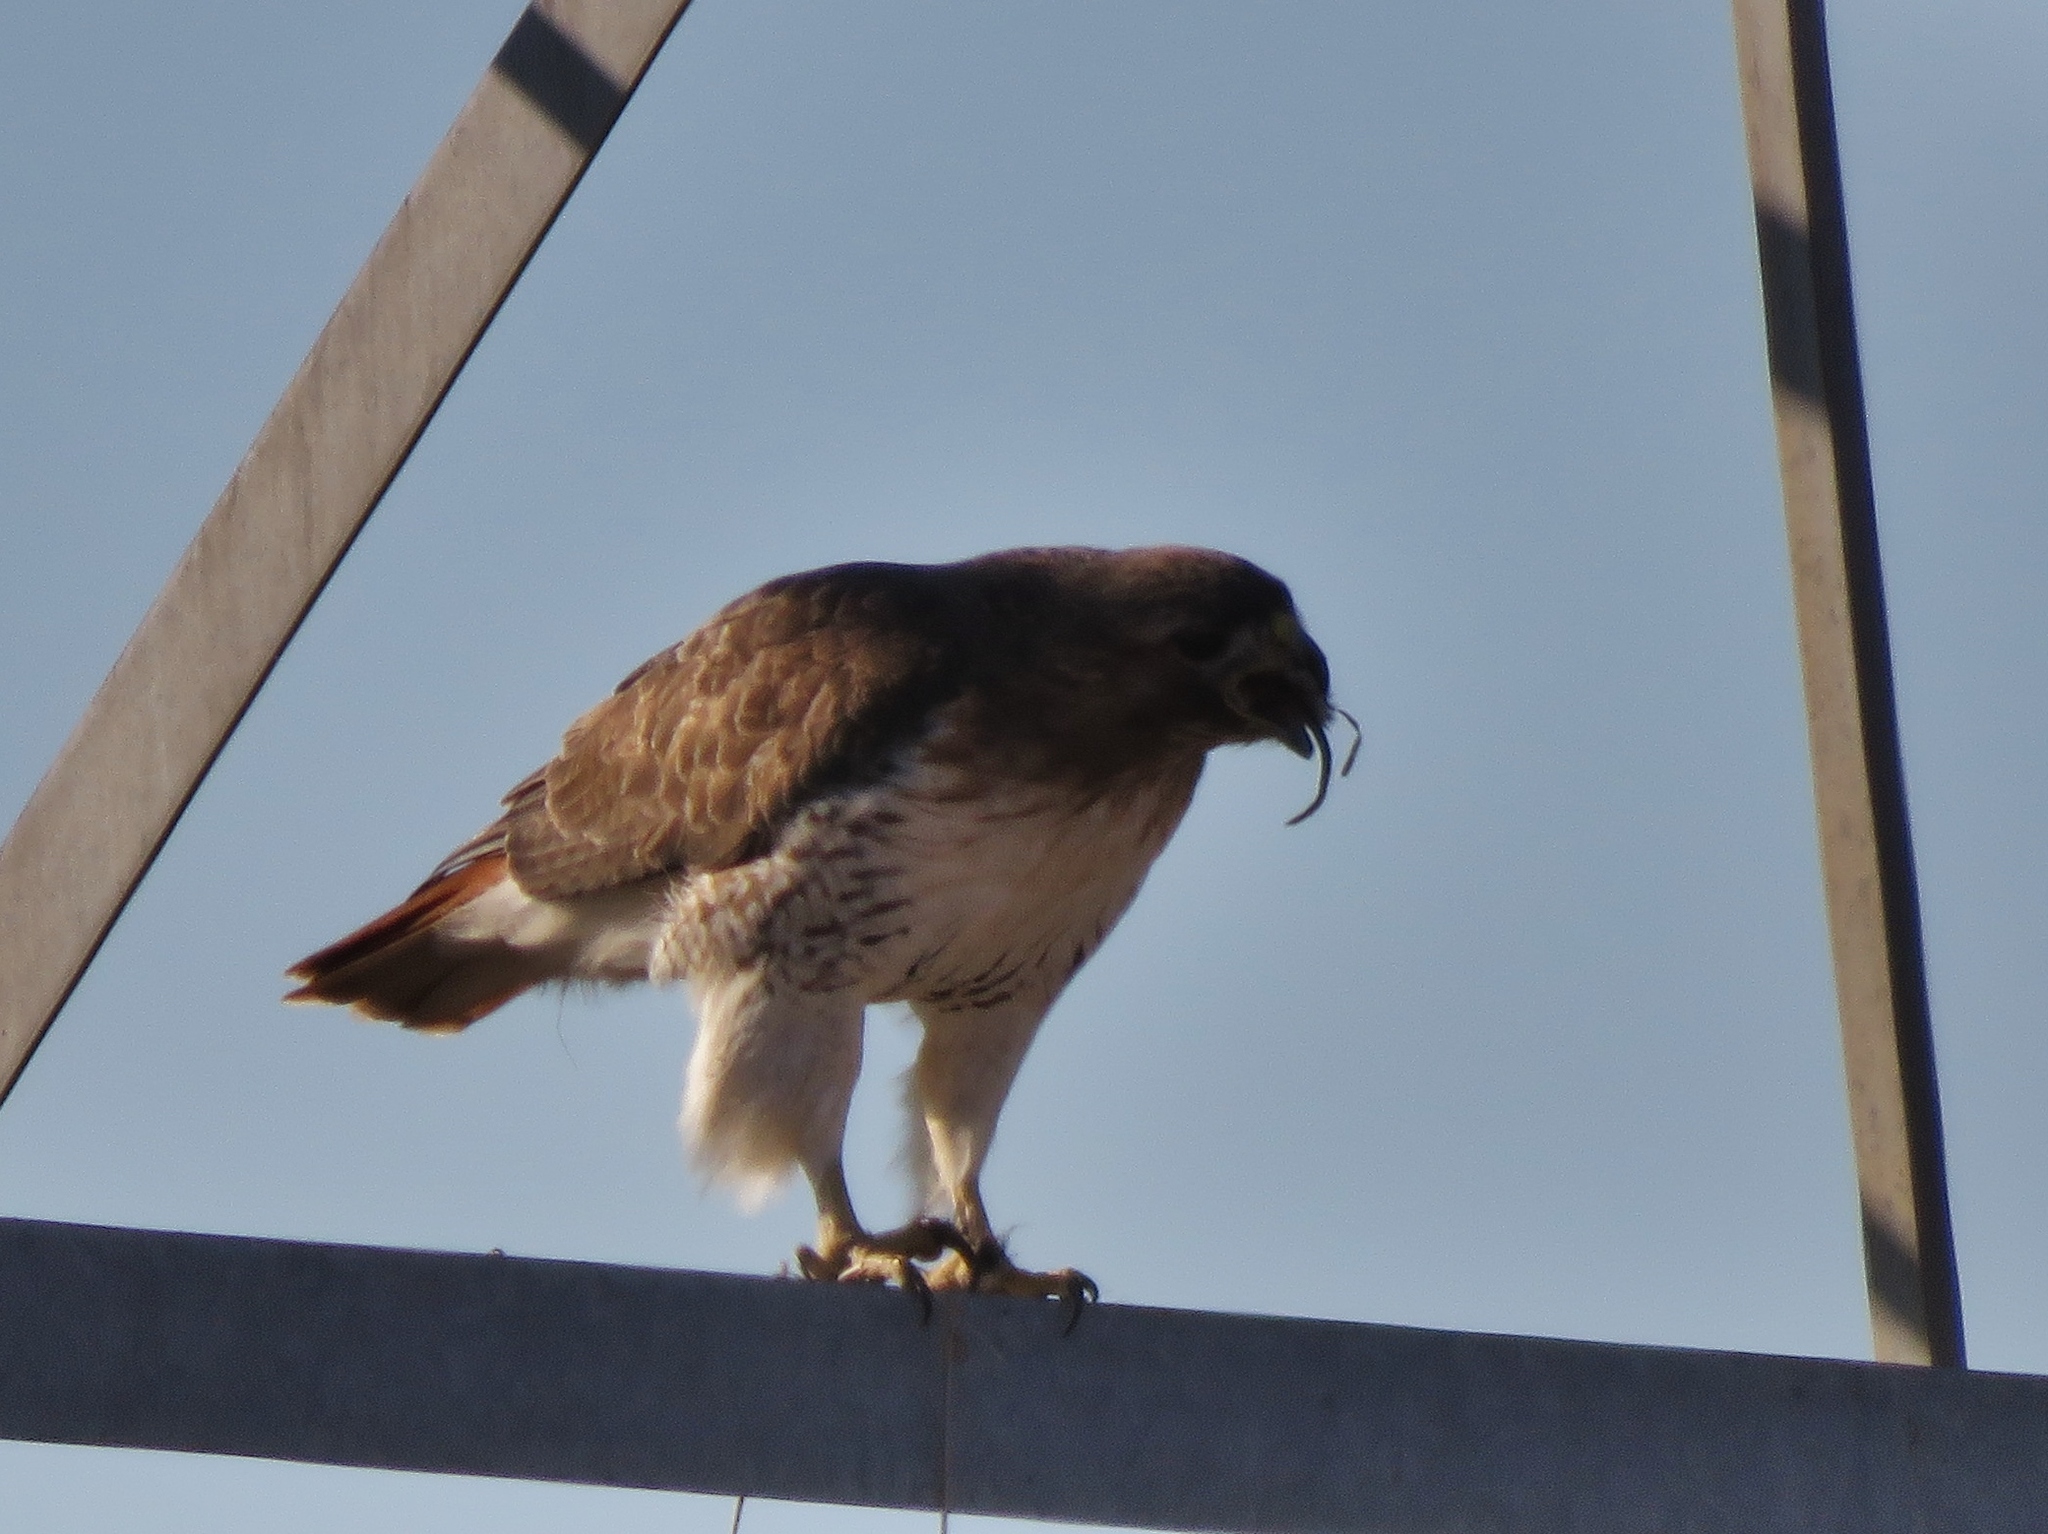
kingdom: Animalia
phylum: Chordata
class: Aves
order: Accipitriformes
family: Accipitridae
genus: Buteo
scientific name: Buteo jamaicensis
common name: Red-tailed hawk
